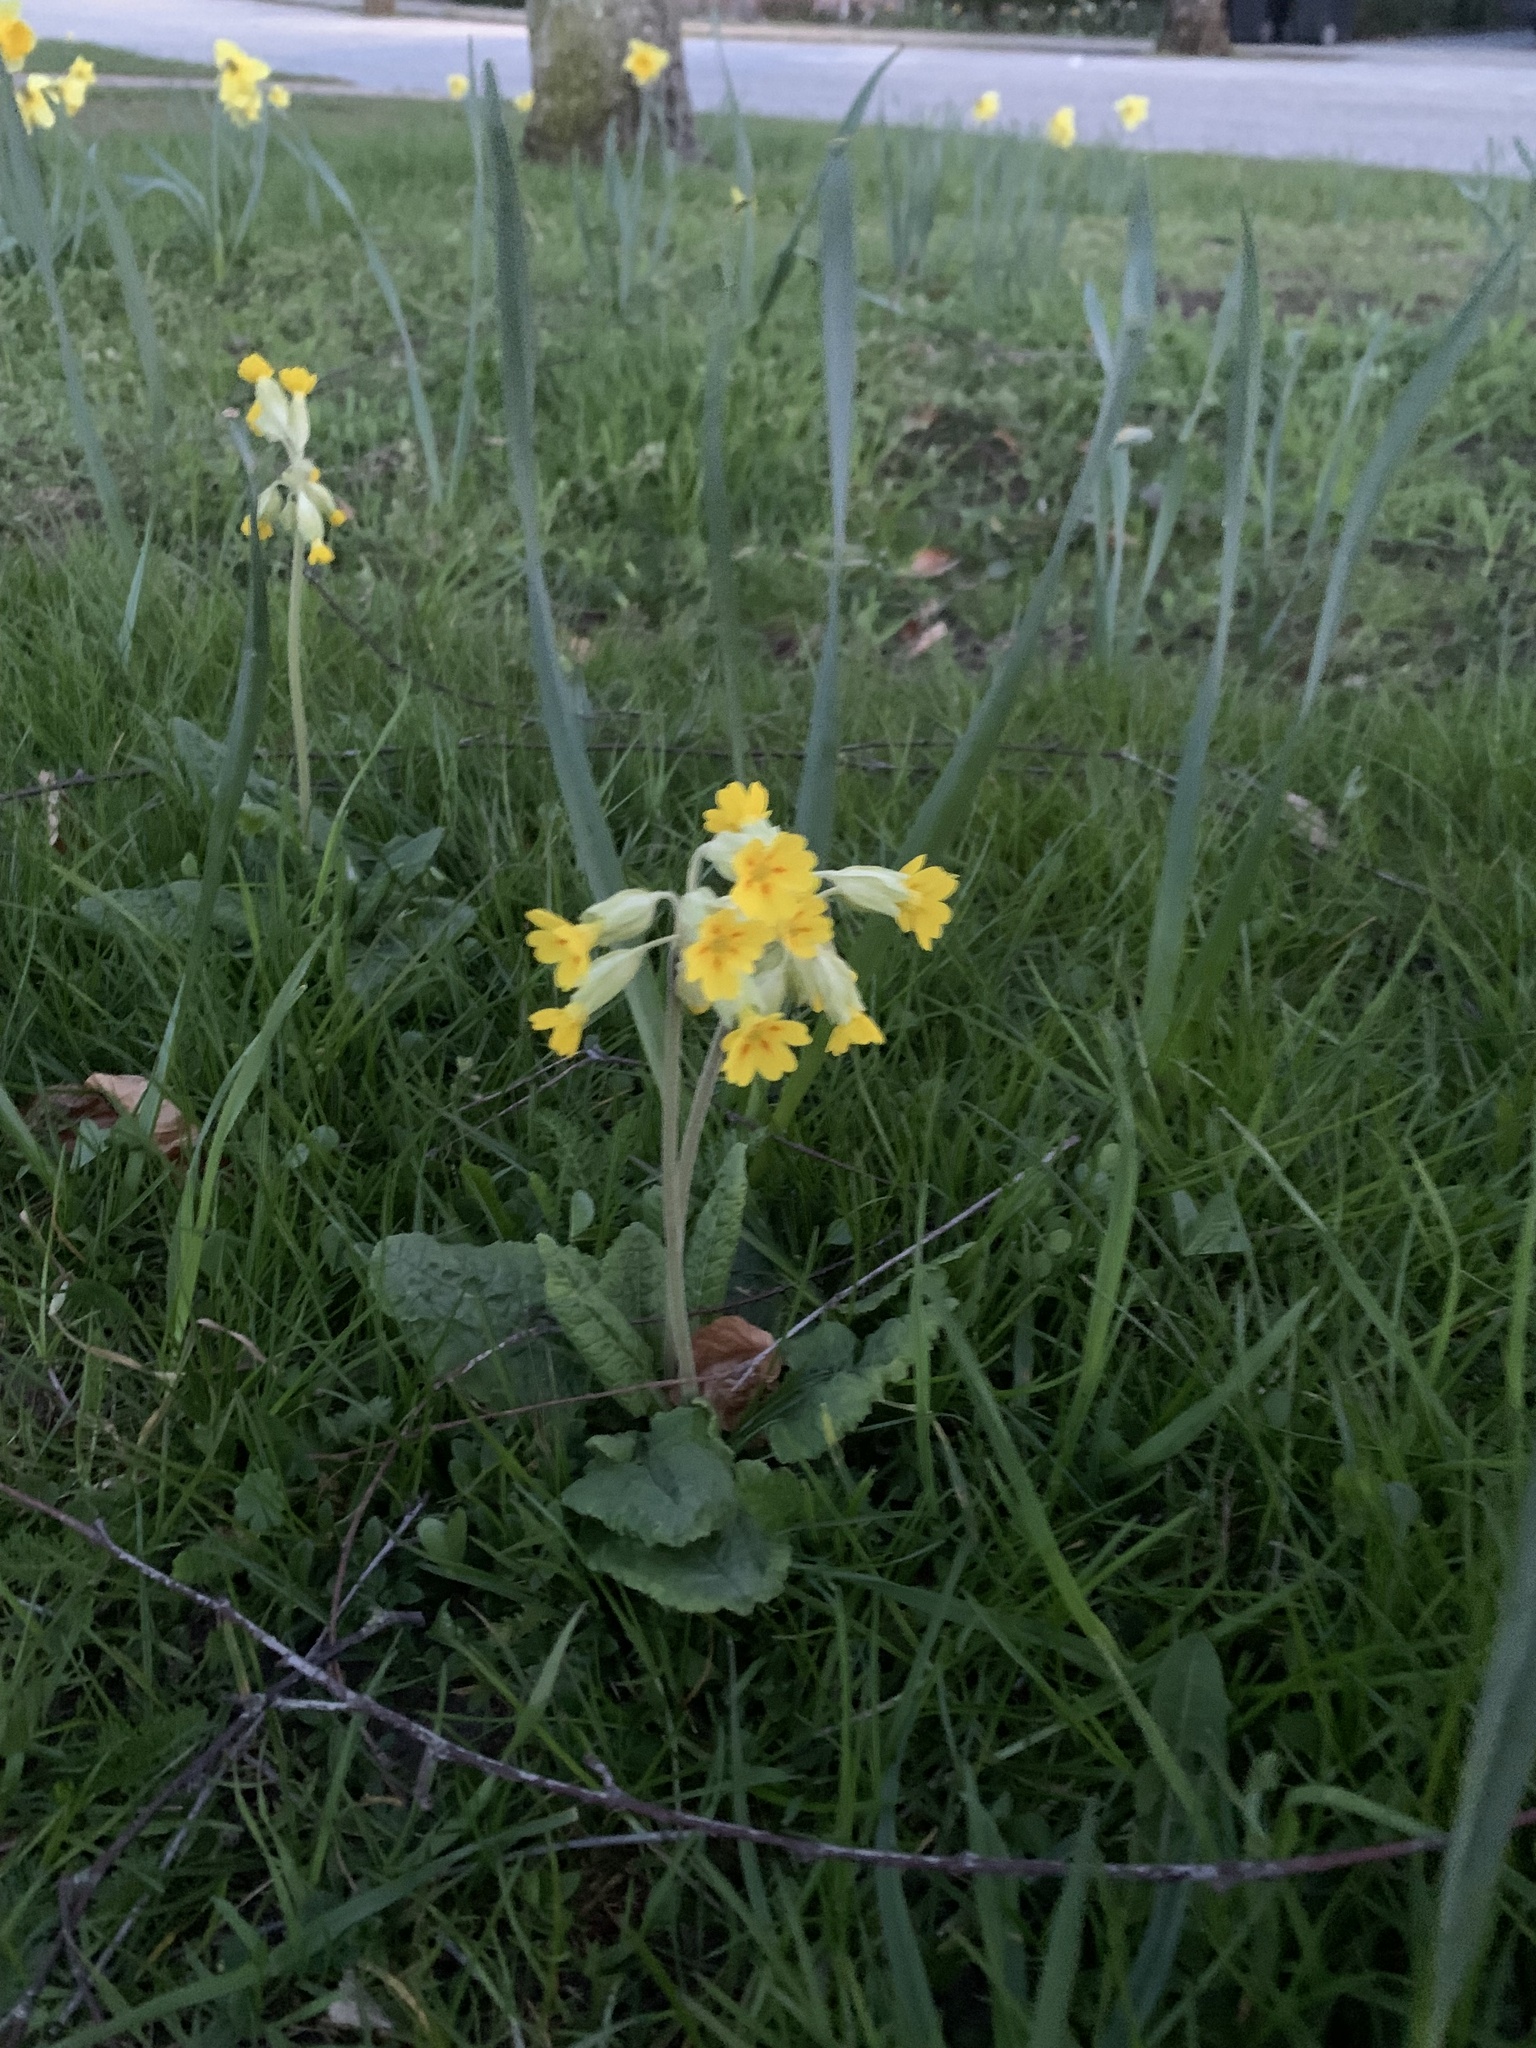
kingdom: Plantae
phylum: Tracheophyta
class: Magnoliopsida
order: Ericales
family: Primulaceae
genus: Primula
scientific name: Primula veris
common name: Cowslip
